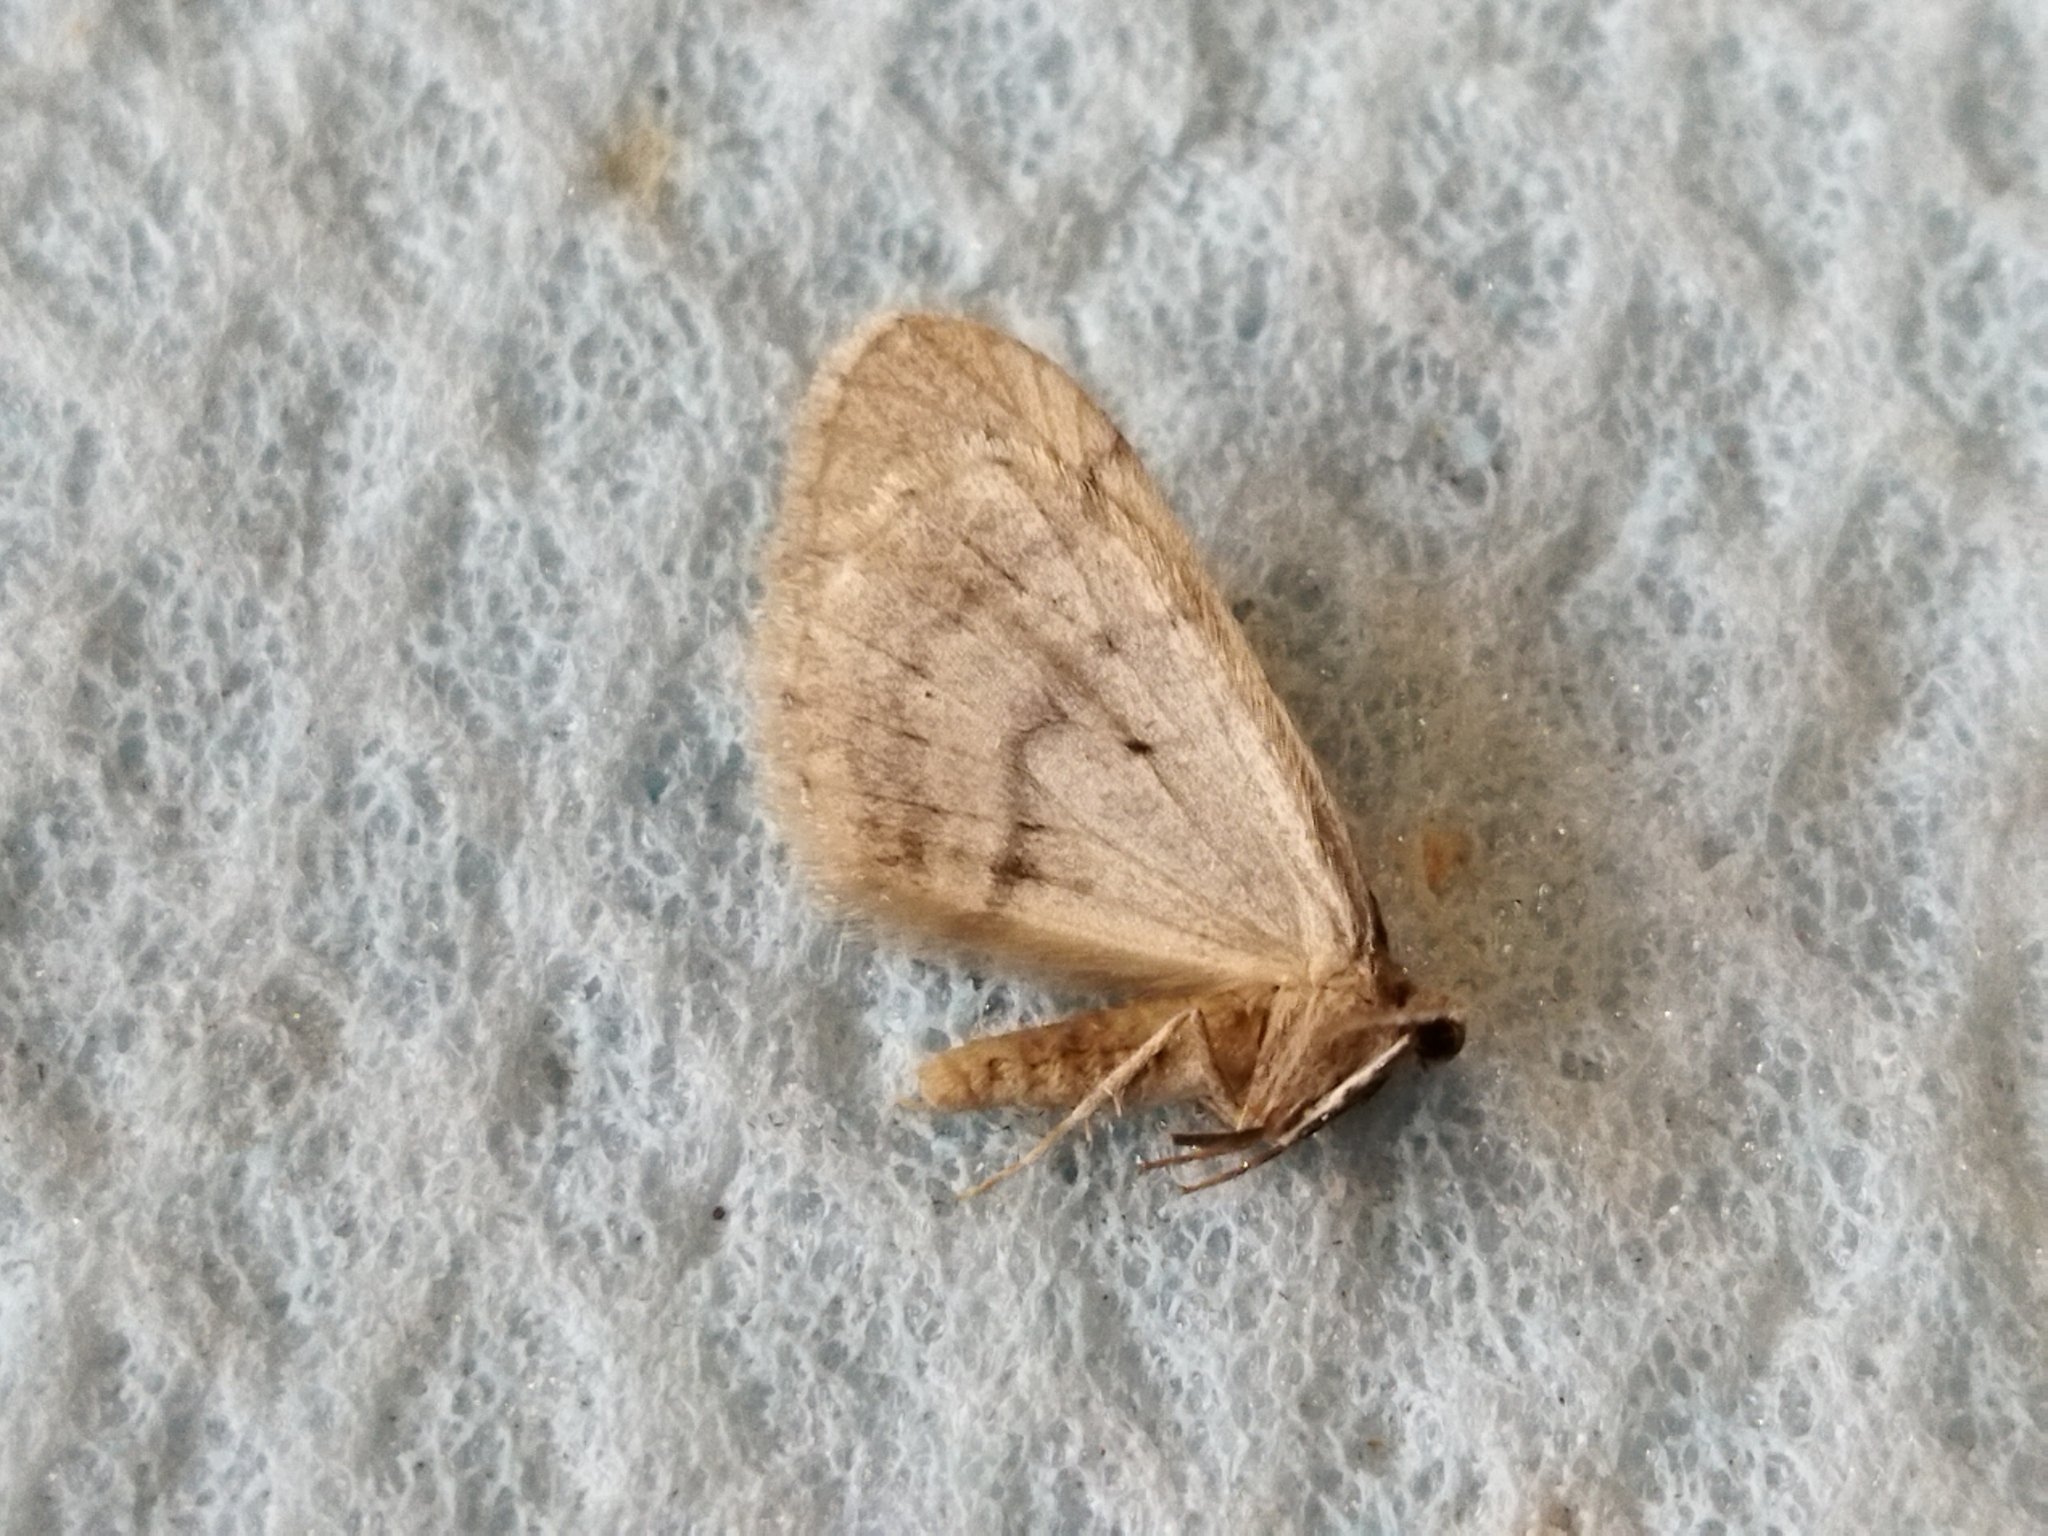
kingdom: Animalia
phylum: Arthropoda
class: Insecta
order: Lepidoptera
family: Geometridae
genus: Operophtera
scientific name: Operophtera brumata
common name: Winter moth
